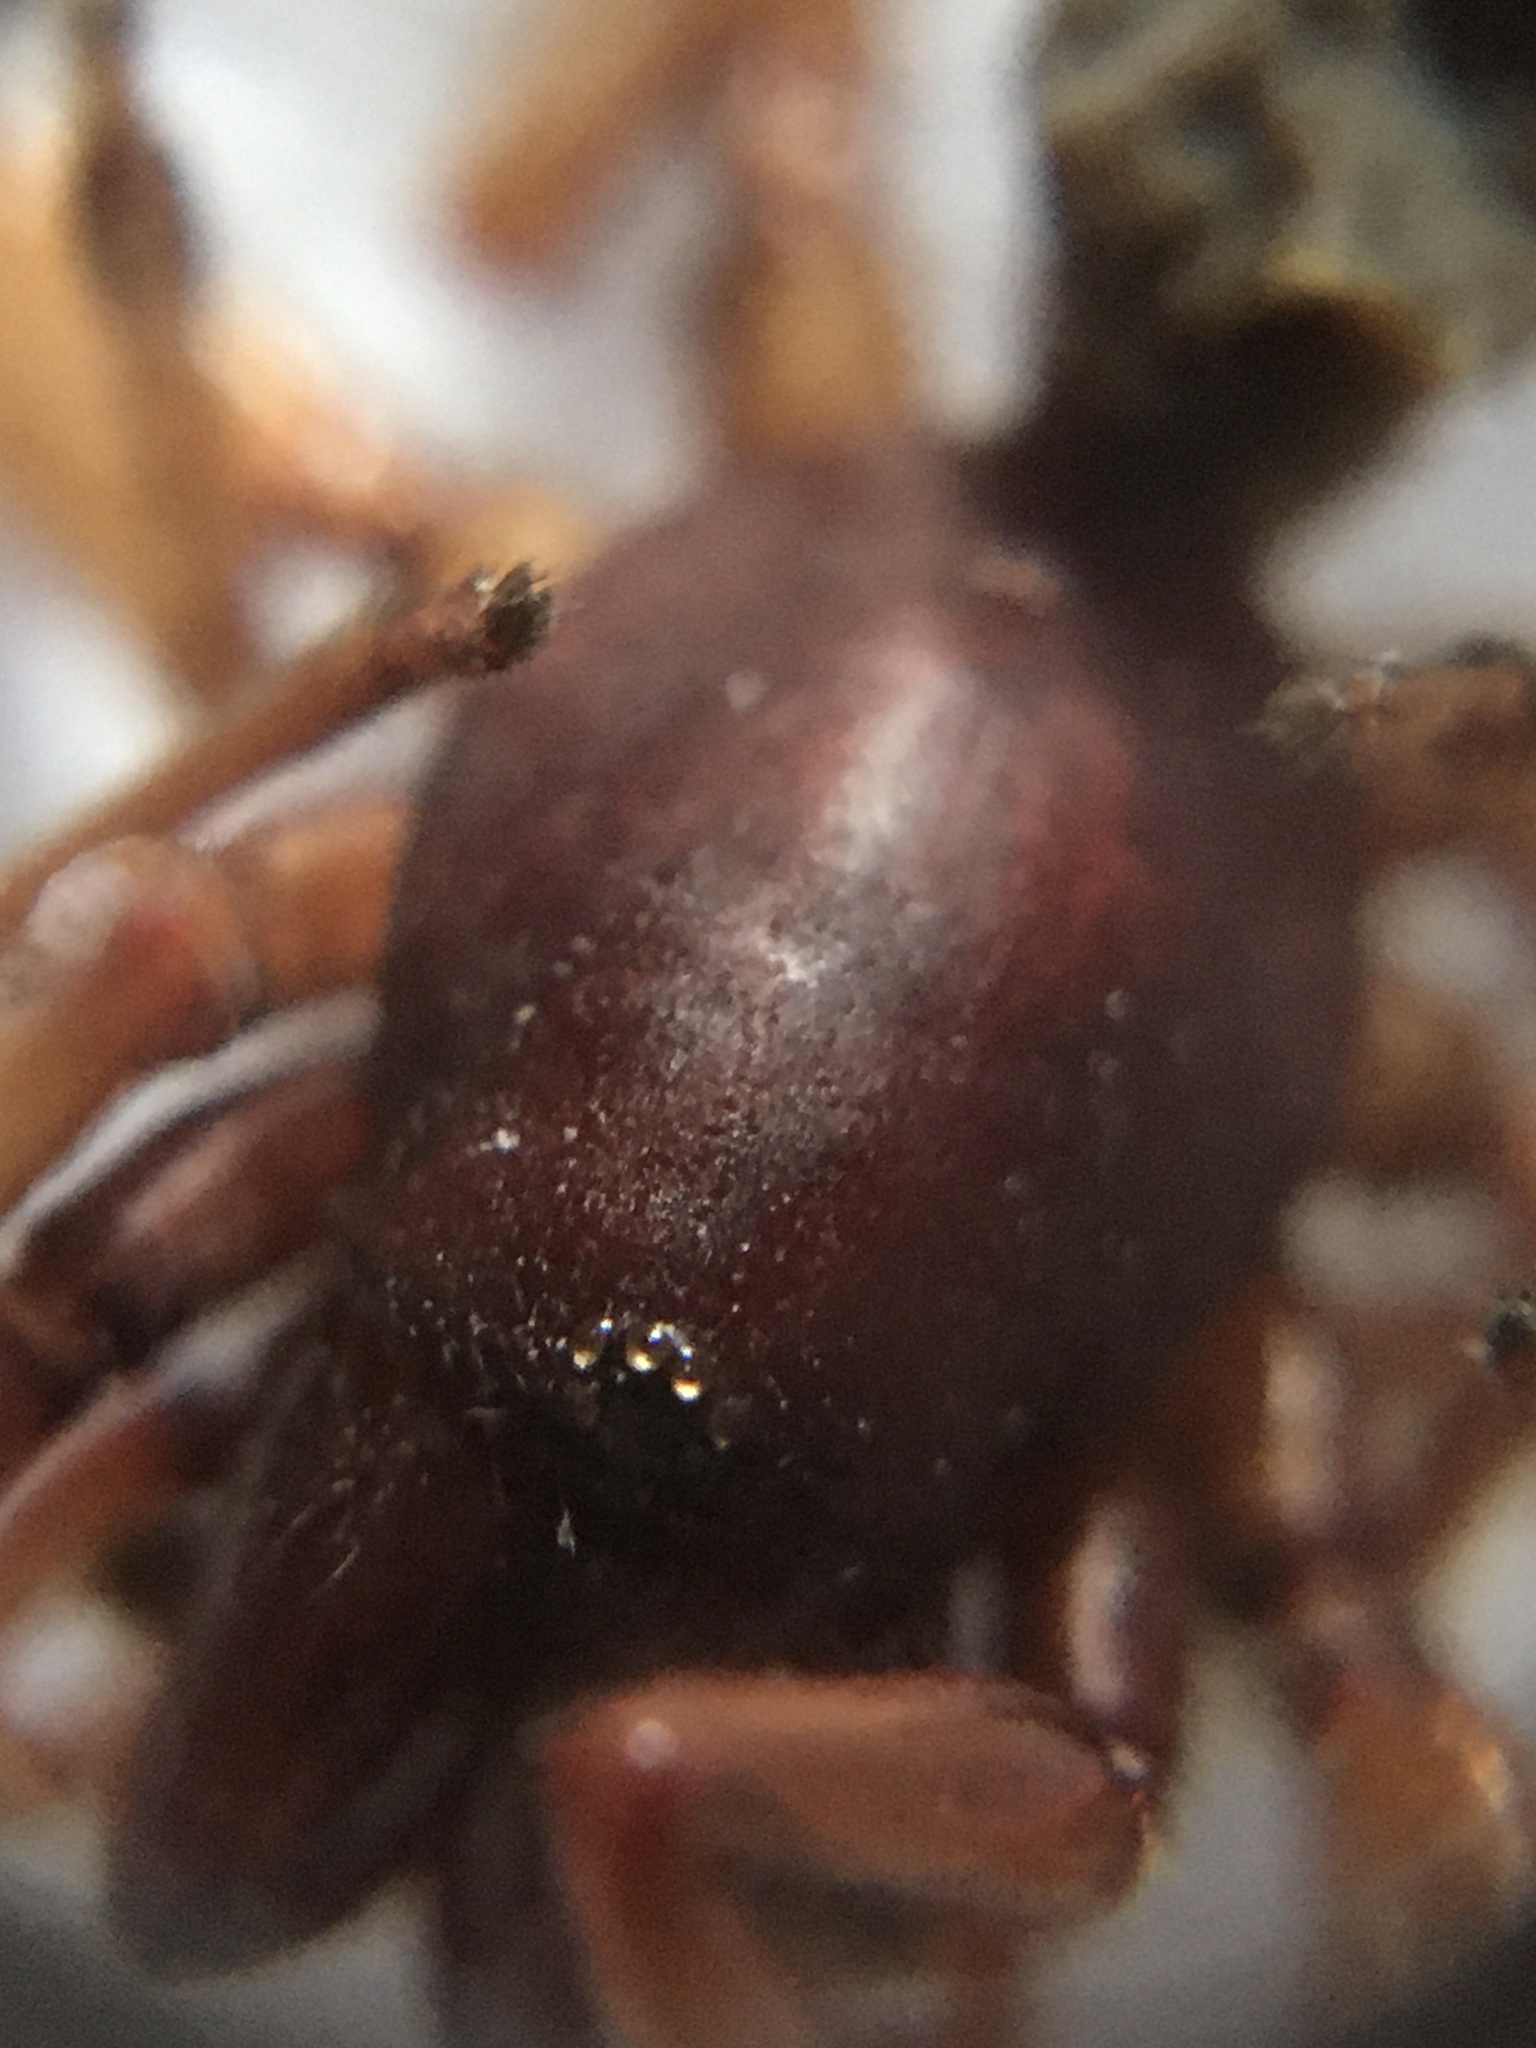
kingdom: Animalia
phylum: Arthropoda
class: Arachnida
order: Araneae
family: Dysderidae
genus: Dysdera
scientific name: Dysdera crocata
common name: Woodlouse spider
